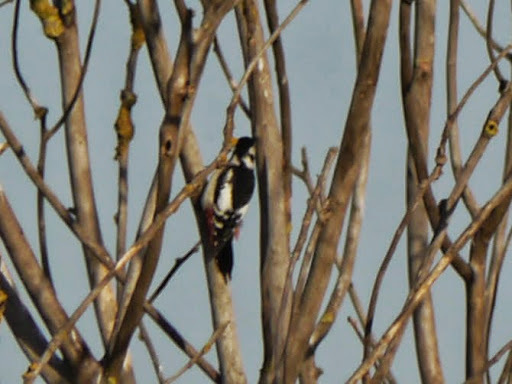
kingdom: Animalia
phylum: Chordata
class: Aves
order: Piciformes
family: Picidae
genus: Dendrocopos
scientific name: Dendrocopos major
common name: Great spotted woodpecker
